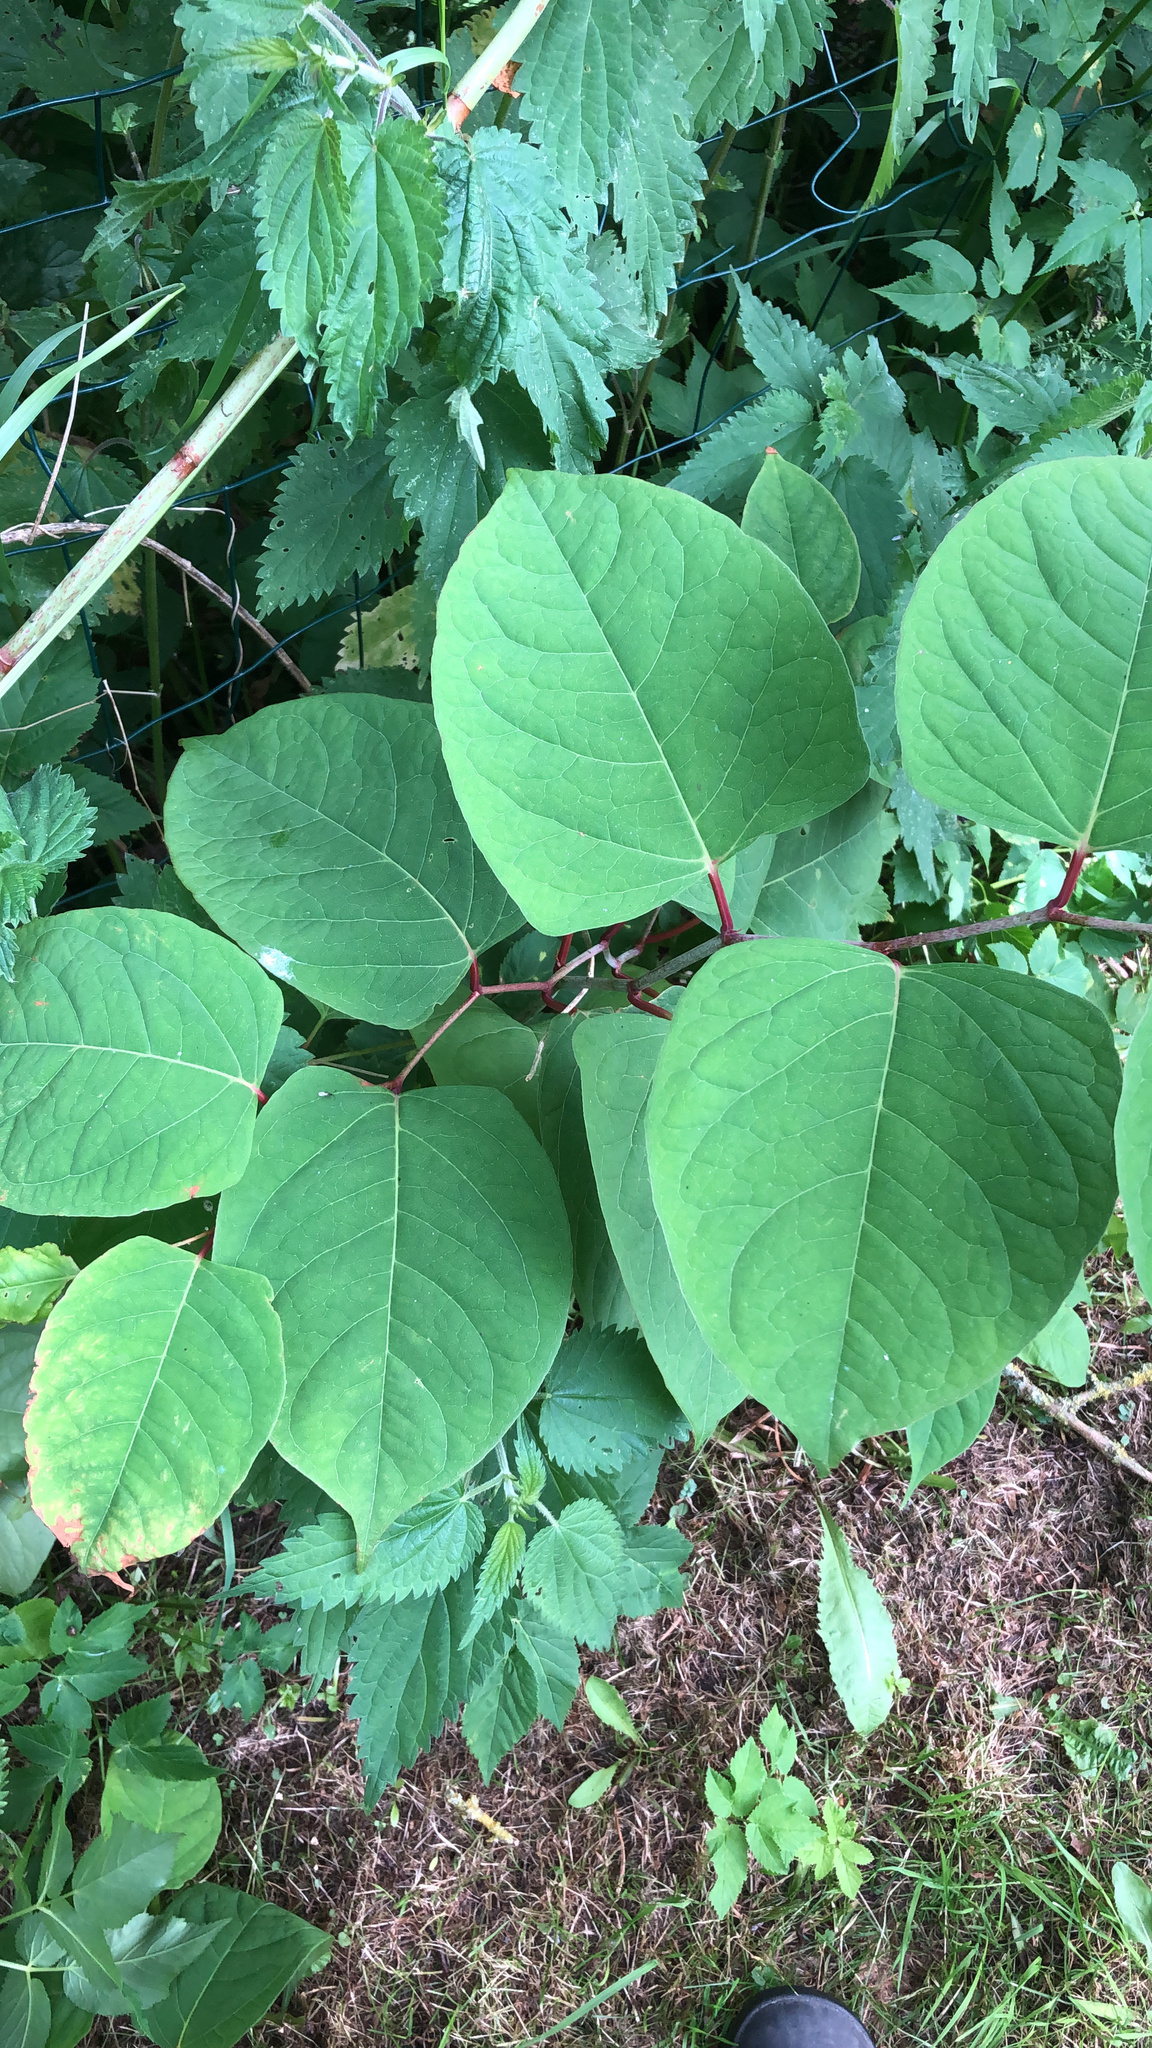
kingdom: Plantae
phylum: Tracheophyta
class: Magnoliopsida
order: Caryophyllales
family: Polygonaceae
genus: Reynoutria
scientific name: Reynoutria japonica
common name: Japanese knotweed
